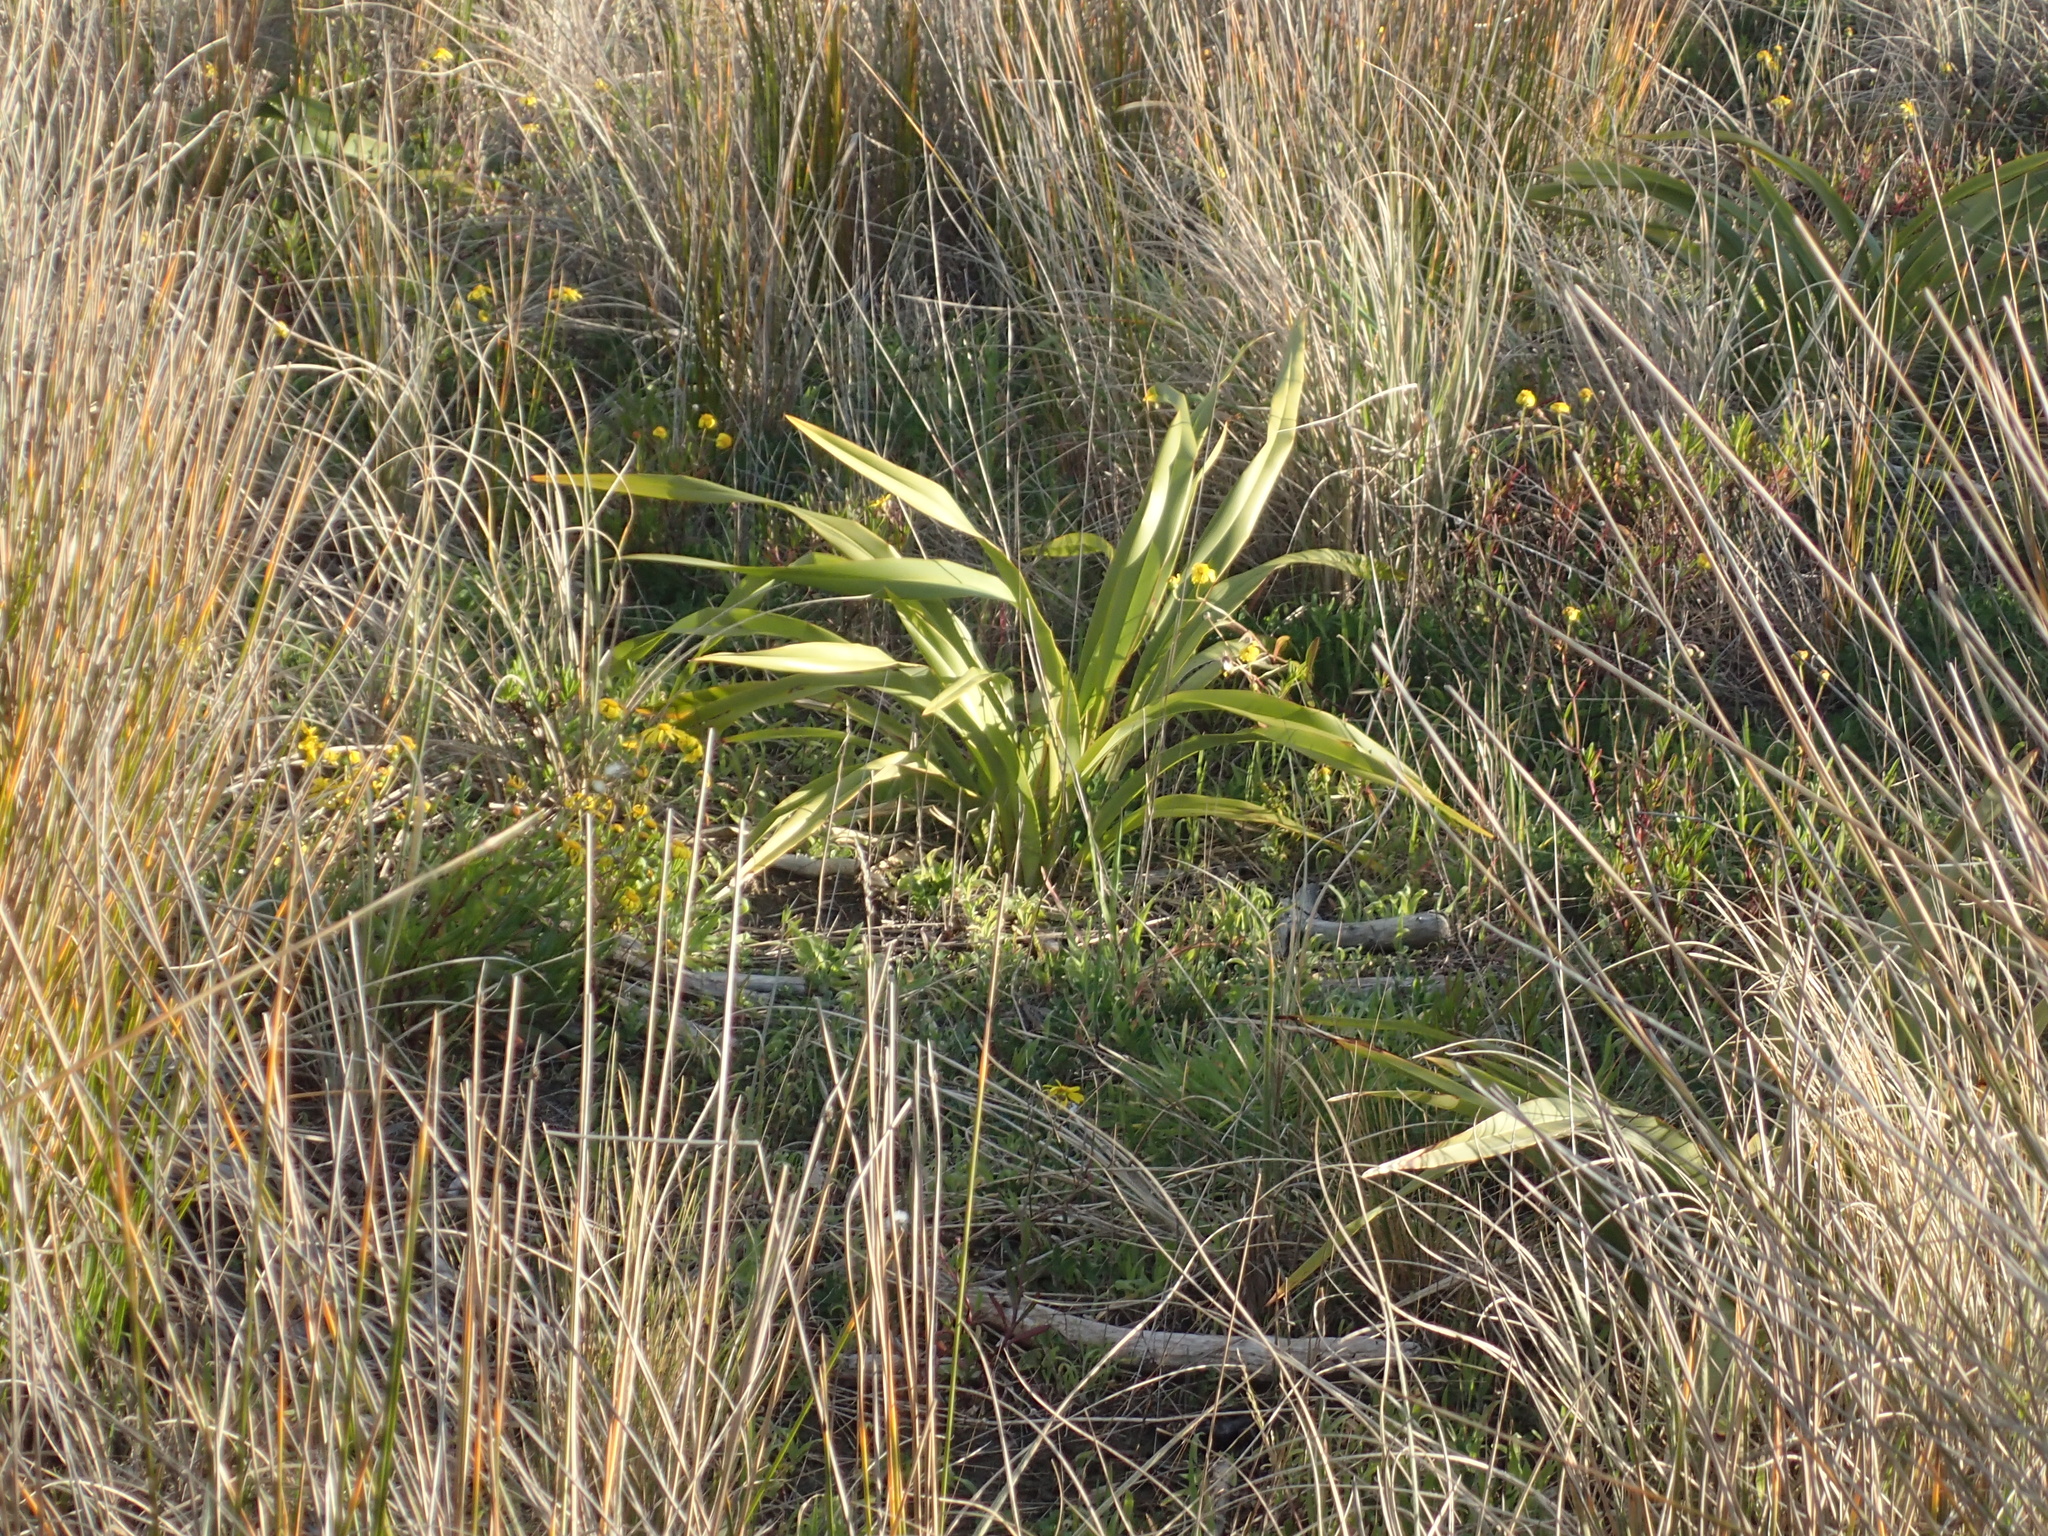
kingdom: Plantae
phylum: Tracheophyta
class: Liliopsida
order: Asparagales
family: Asphodelaceae
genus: Phormium
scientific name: Phormium colensoi
